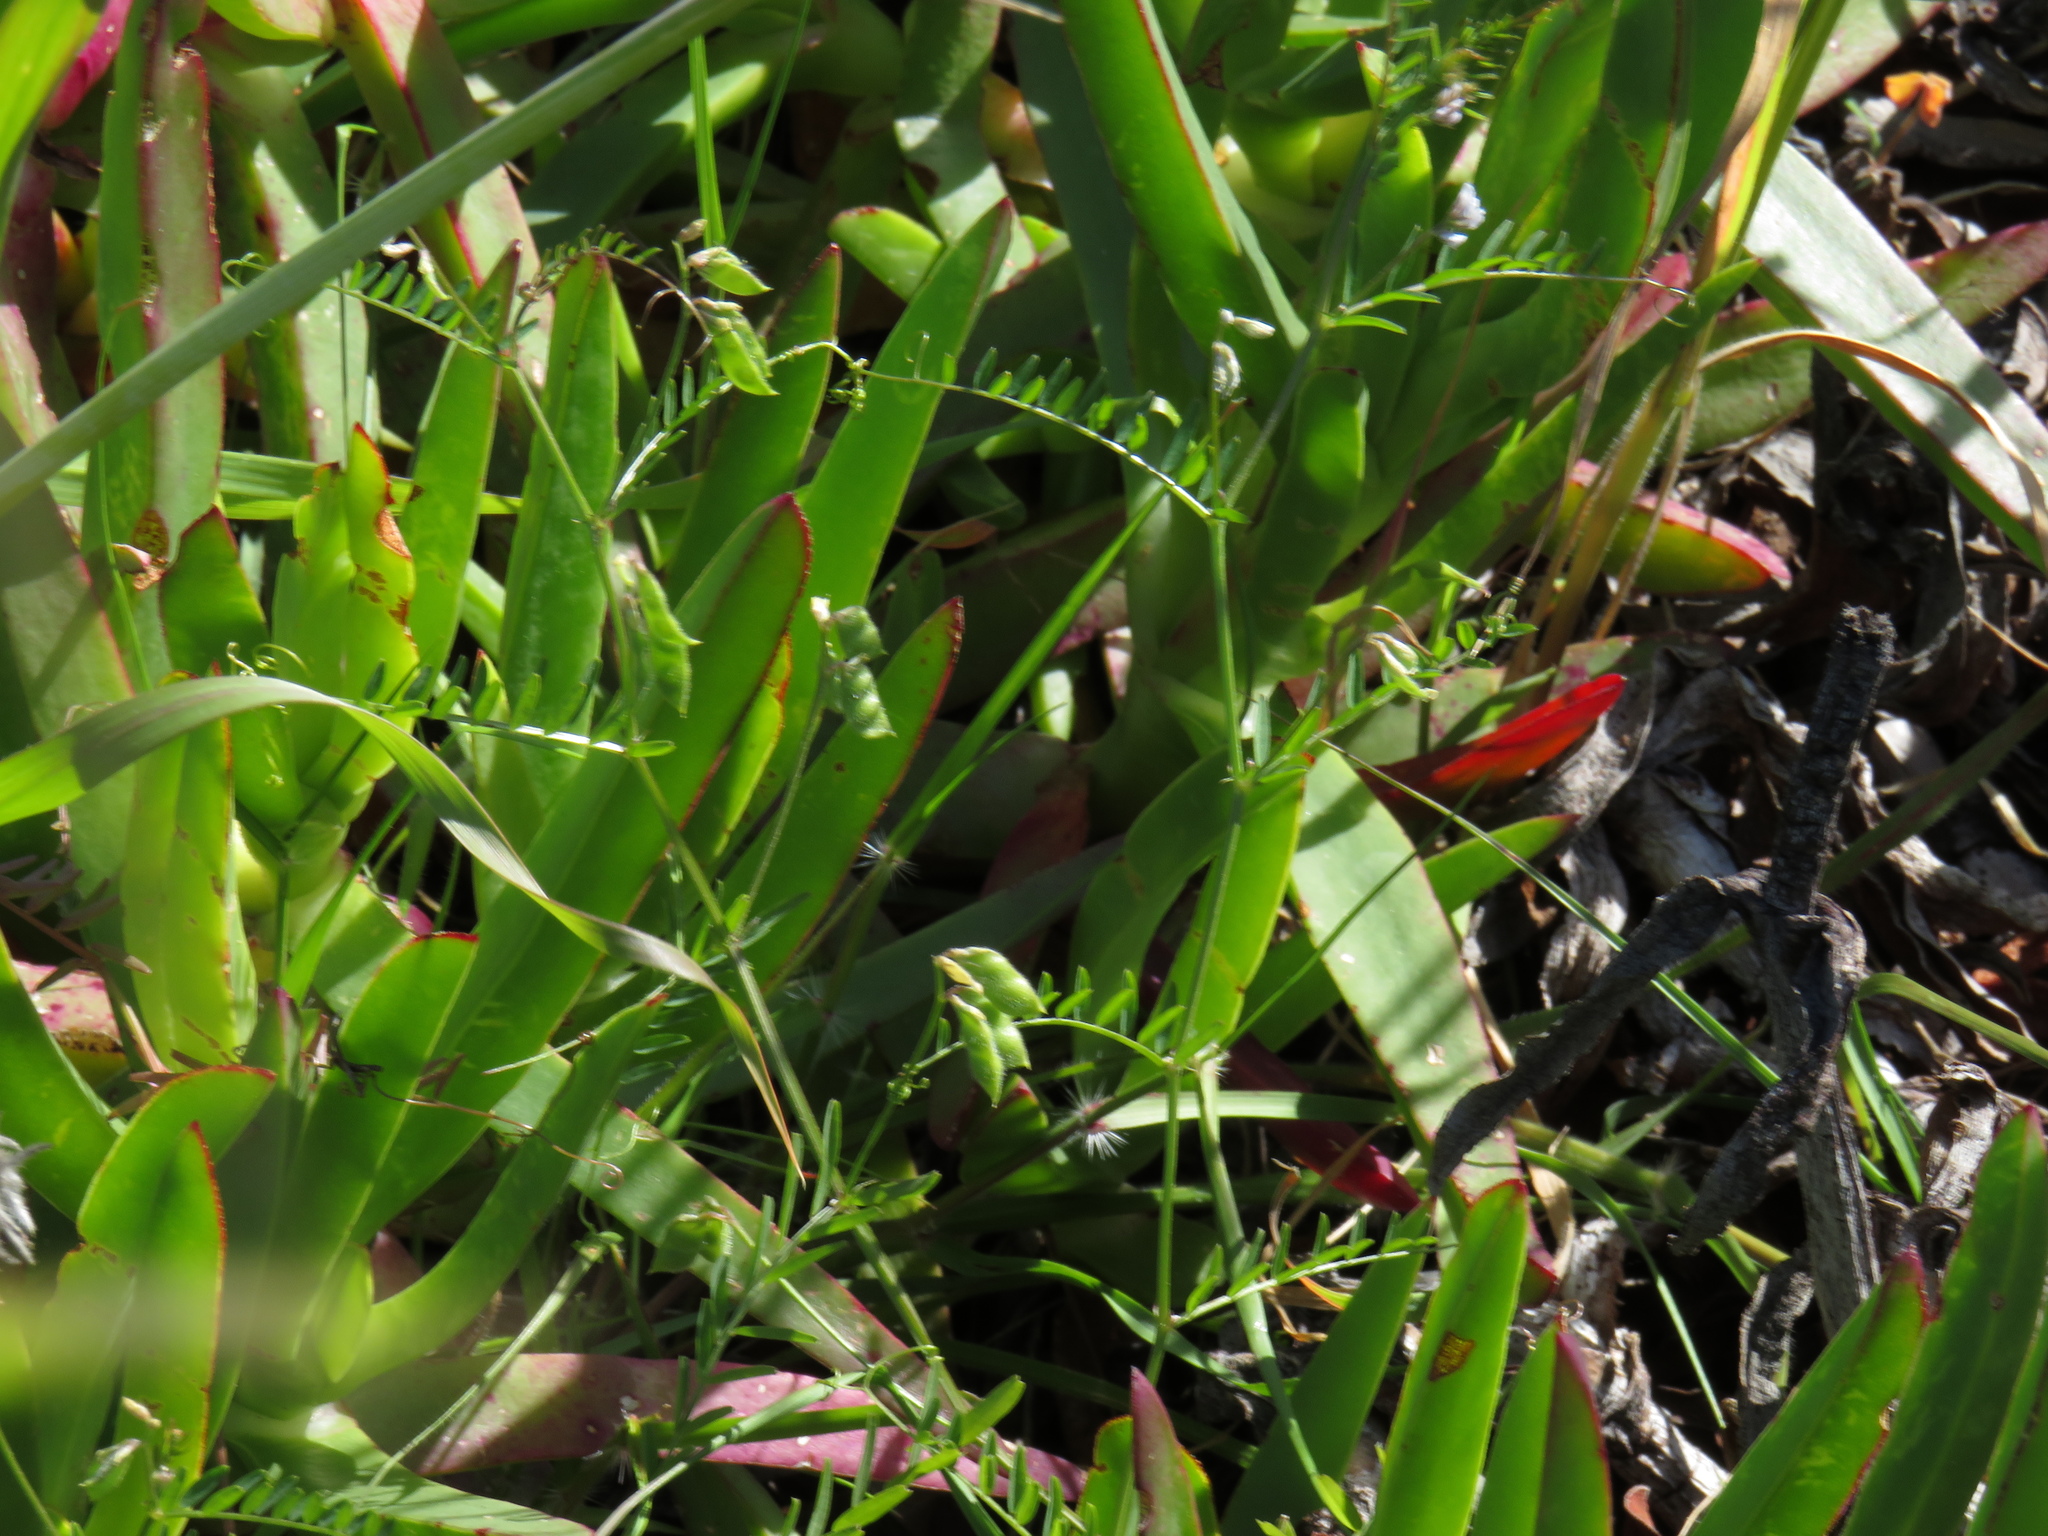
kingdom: Plantae
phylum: Tracheophyta
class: Magnoliopsida
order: Fabales
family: Fabaceae
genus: Vicia
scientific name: Vicia hirsuta
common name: Tiny vetch
